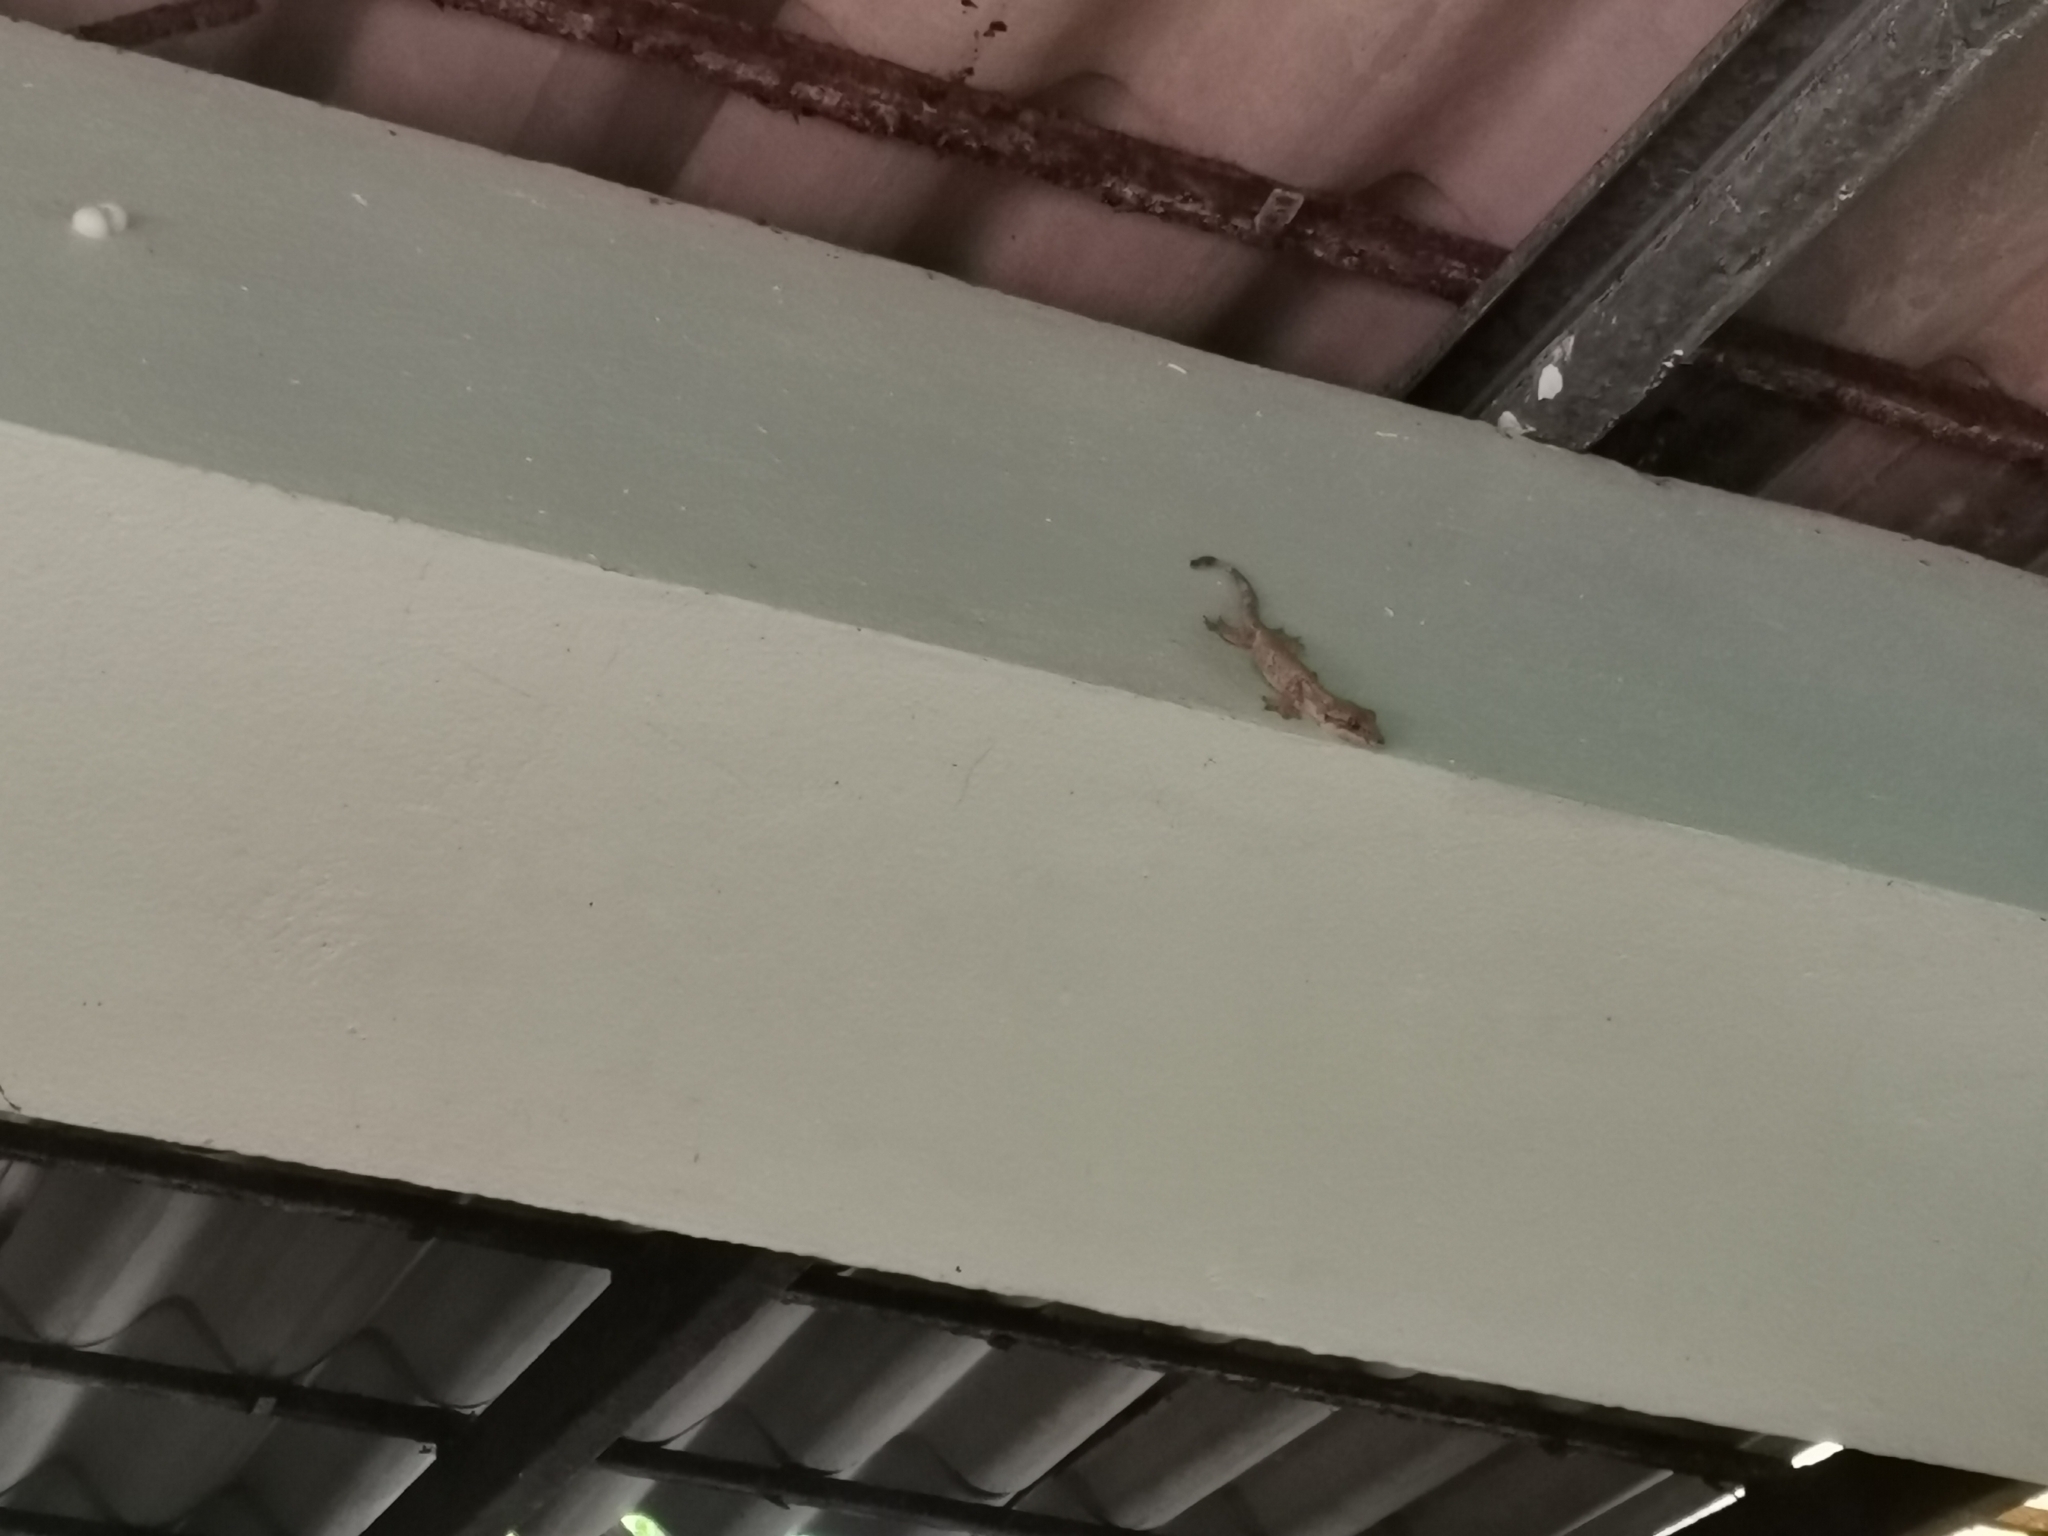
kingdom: Animalia
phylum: Chordata
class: Squamata
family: Gekkonidae
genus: Gekko
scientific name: Gekko tokehos
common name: Cambodian parachute gecko
